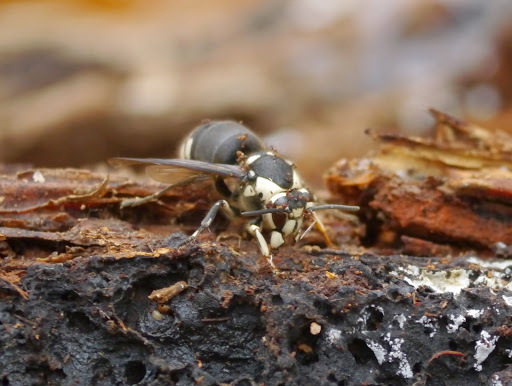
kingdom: Animalia
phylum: Arthropoda
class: Insecta
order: Hymenoptera
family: Vespidae
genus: Dolichovespula
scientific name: Dolichovespula maculata
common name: Bald-faced hornet
